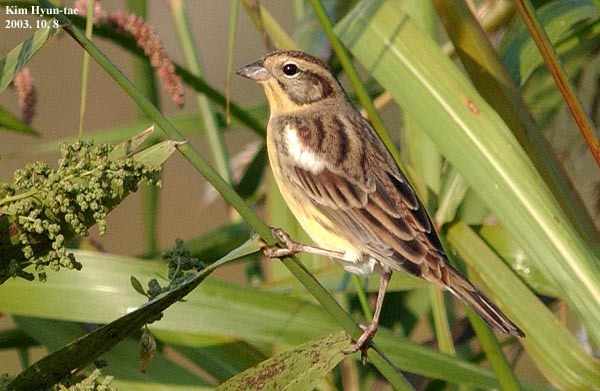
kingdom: Animalia
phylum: Chordata
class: Aves
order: Passeriformes
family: Emberizidae
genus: Emberiza
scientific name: Emberiza aureola
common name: Yellow-breasted bunting
